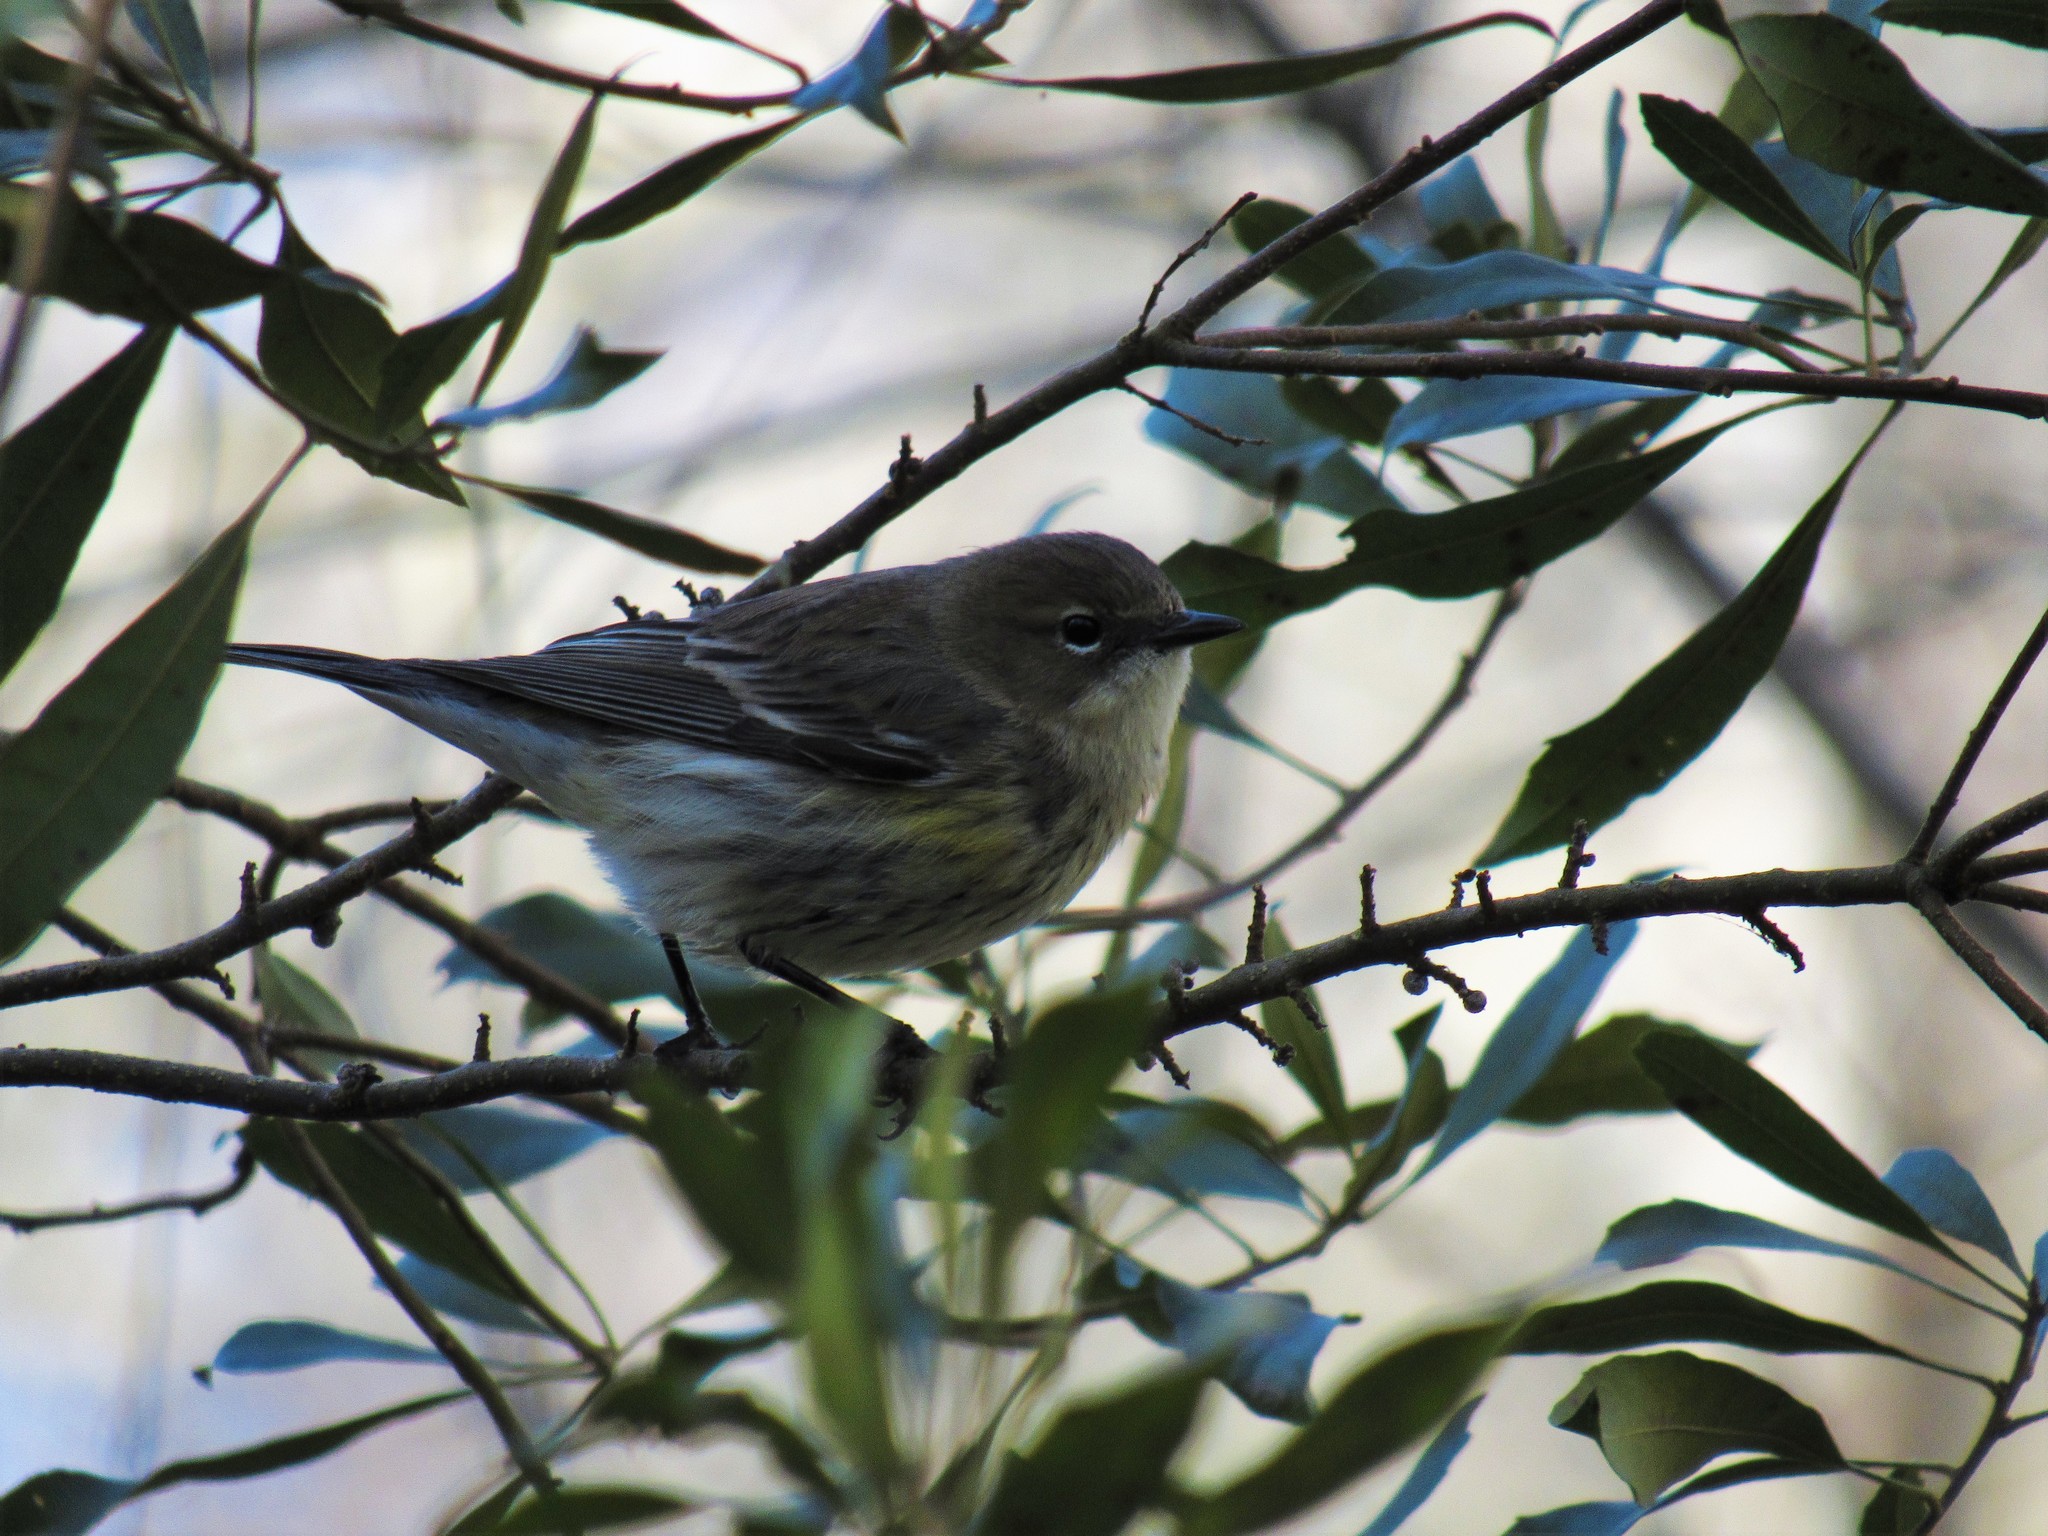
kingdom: Animalia
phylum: Chordata
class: Aves
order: Passeriformes
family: Parulidae
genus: Setophaga
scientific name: Setophaga coronata
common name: Myrtle warbler
